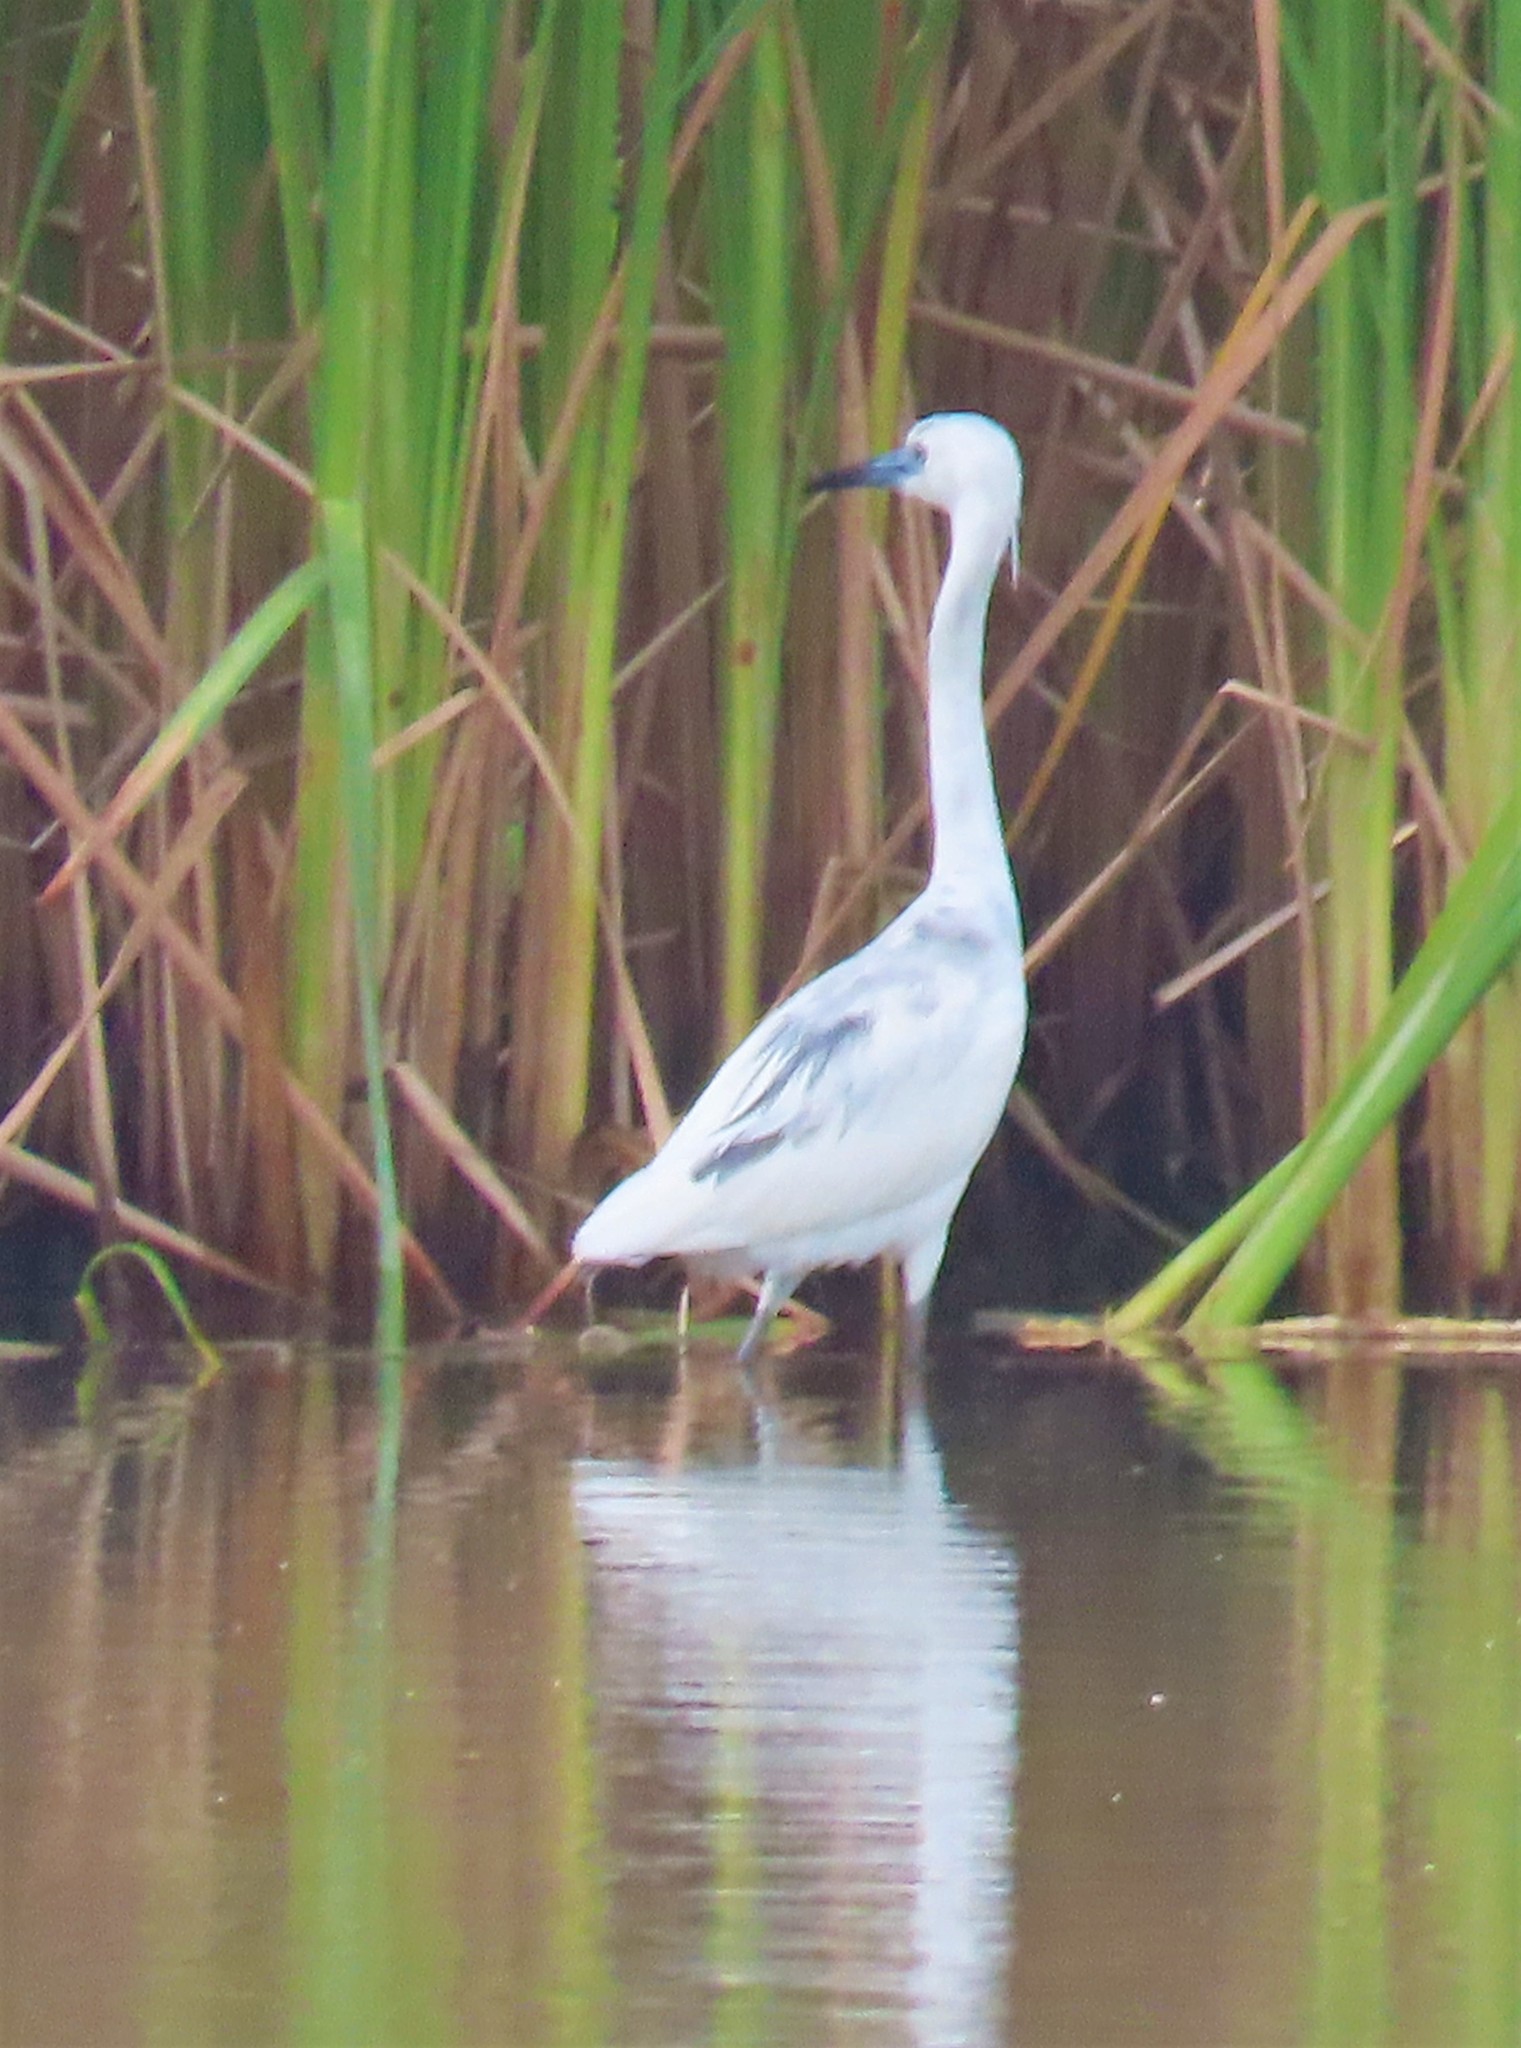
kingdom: Animalia
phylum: Chordata
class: Aves
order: Pelecaniformes
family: Ardeidae
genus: Egretta
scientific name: Egretta caerulea
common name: Little blue heron
